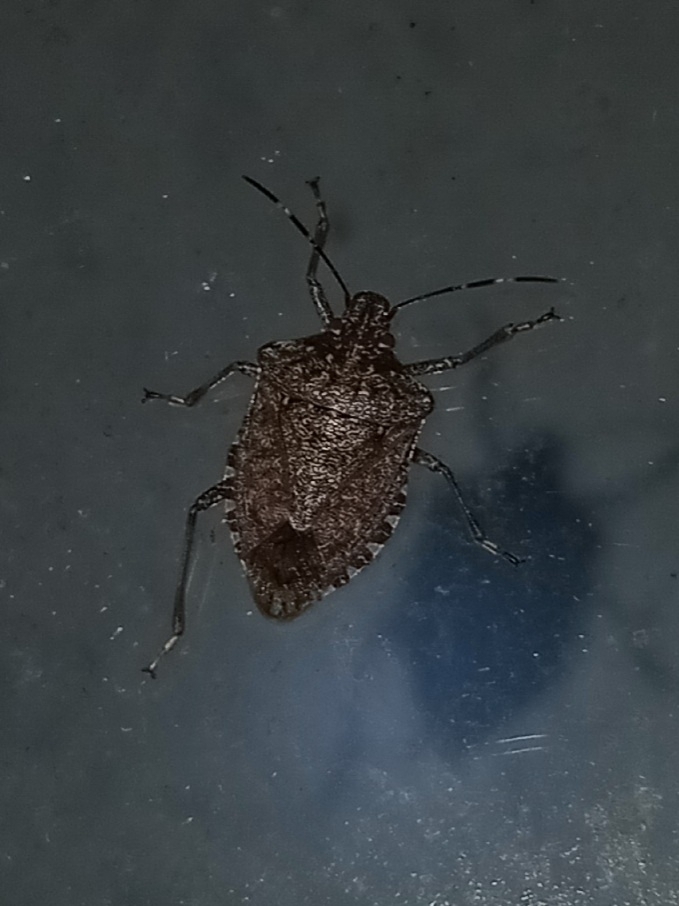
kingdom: Animalia
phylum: Arthropoda
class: Insecta
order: Hemiptera
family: Pentatomidae
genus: Halyomorpha
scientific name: Halyomorpha halys
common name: Brown marmorated stink bug
